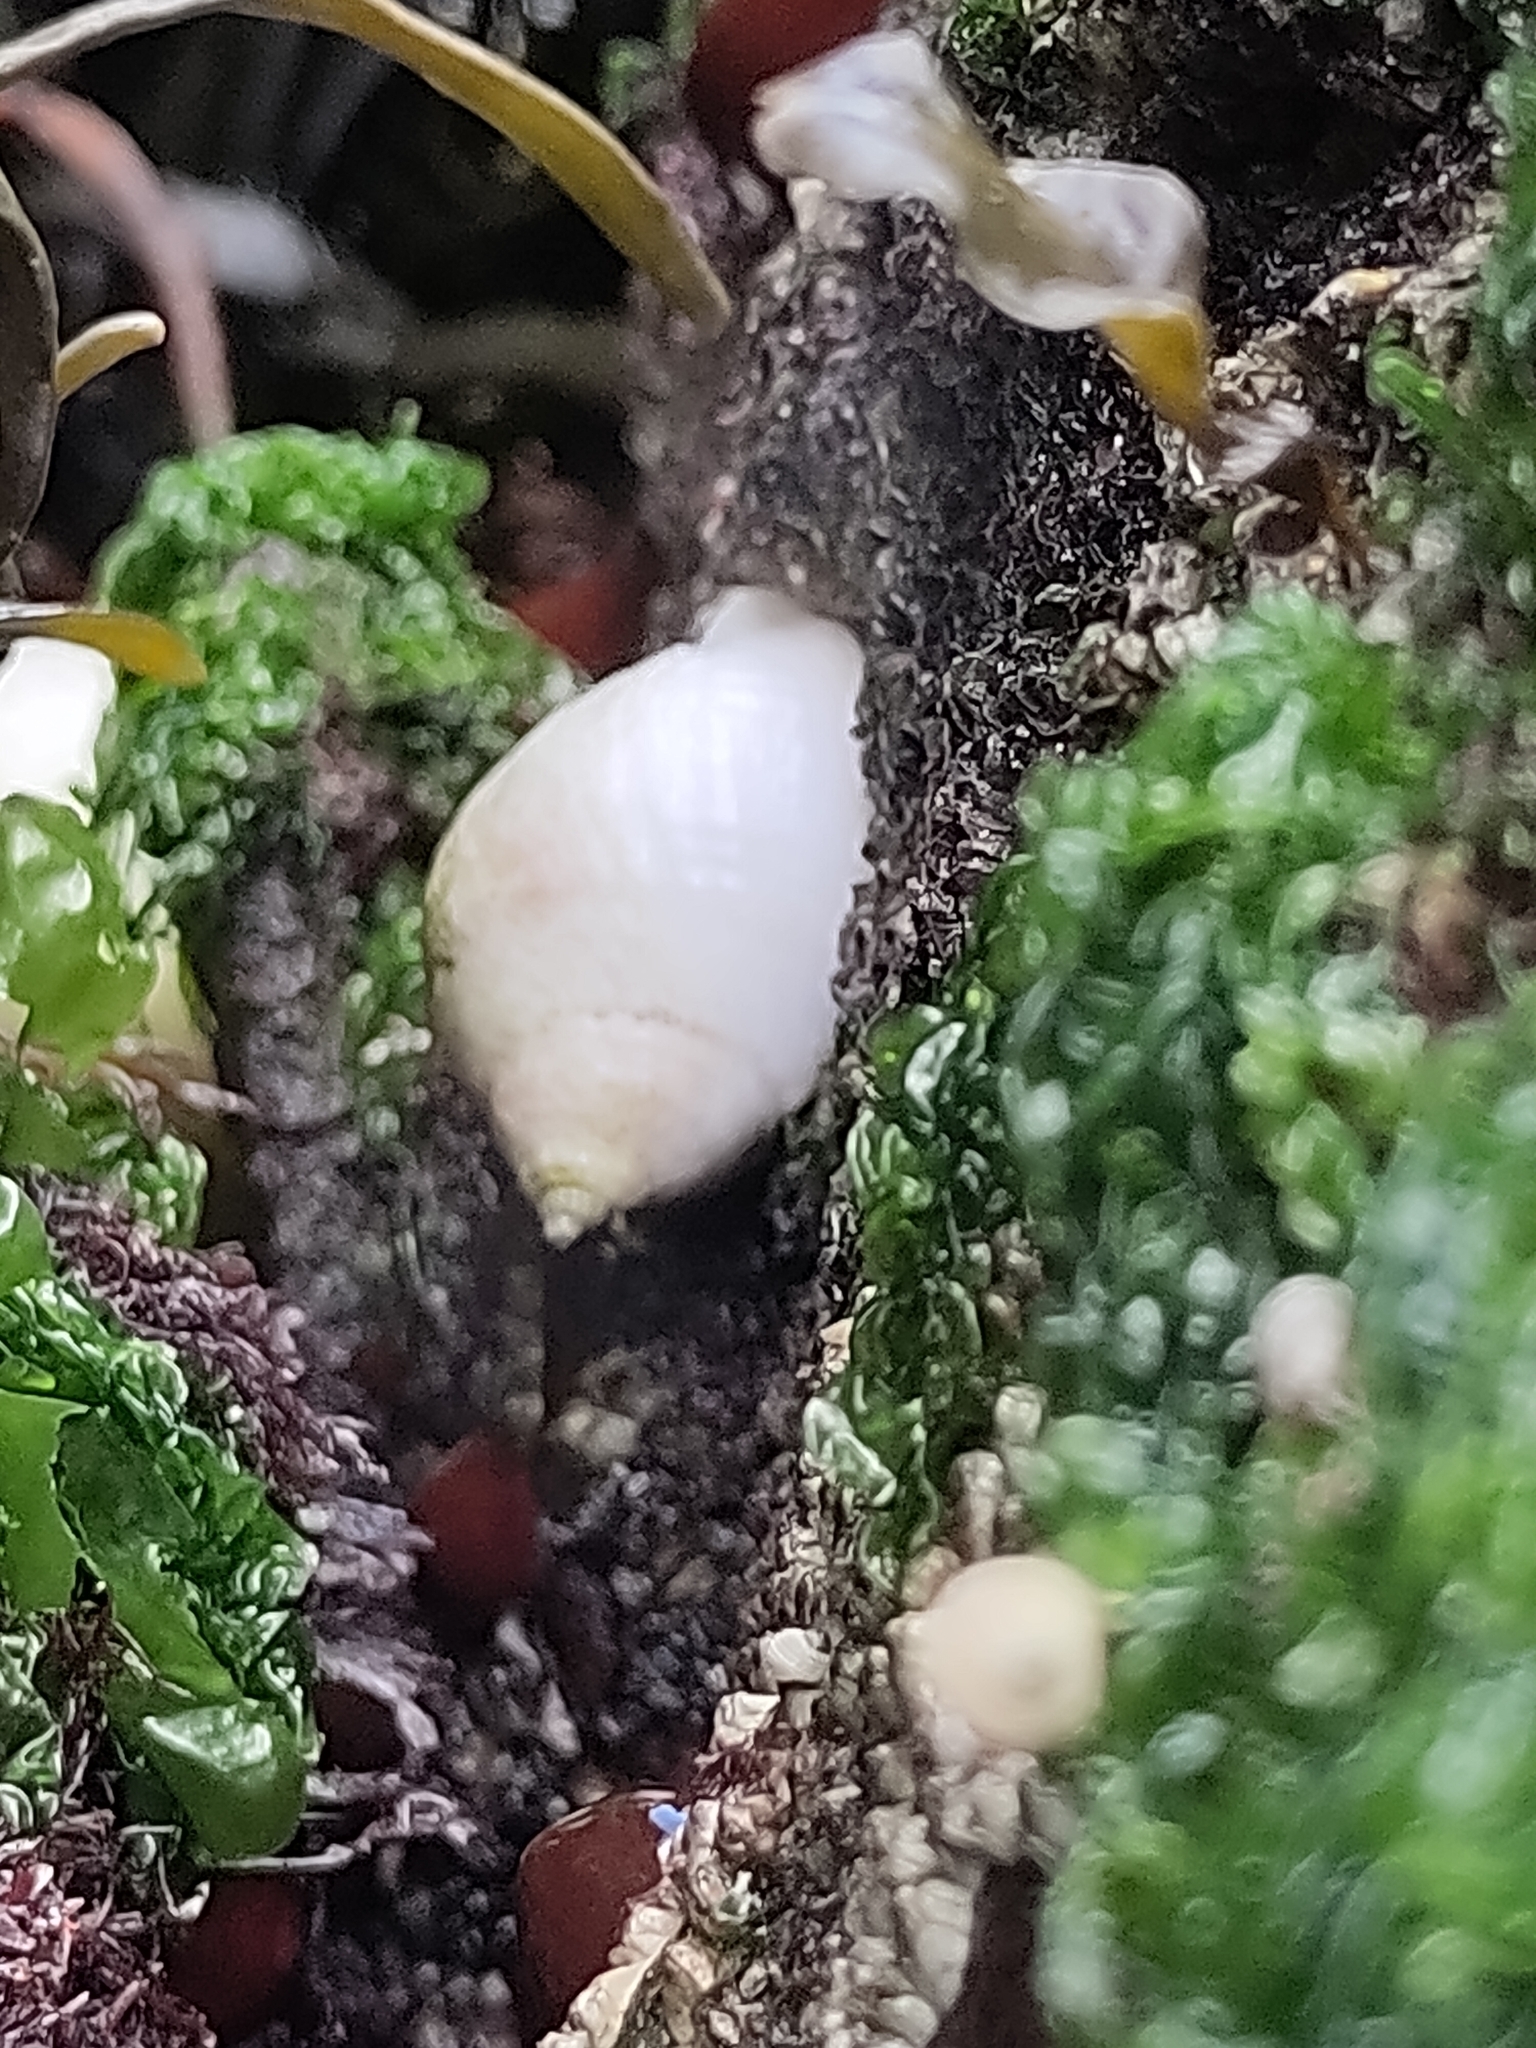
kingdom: Animalia
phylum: Mollusca
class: Gastropoda
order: Neogastropoda
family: Muricidae
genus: Nucella
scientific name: Nucella lapillus
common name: Dog whelk
